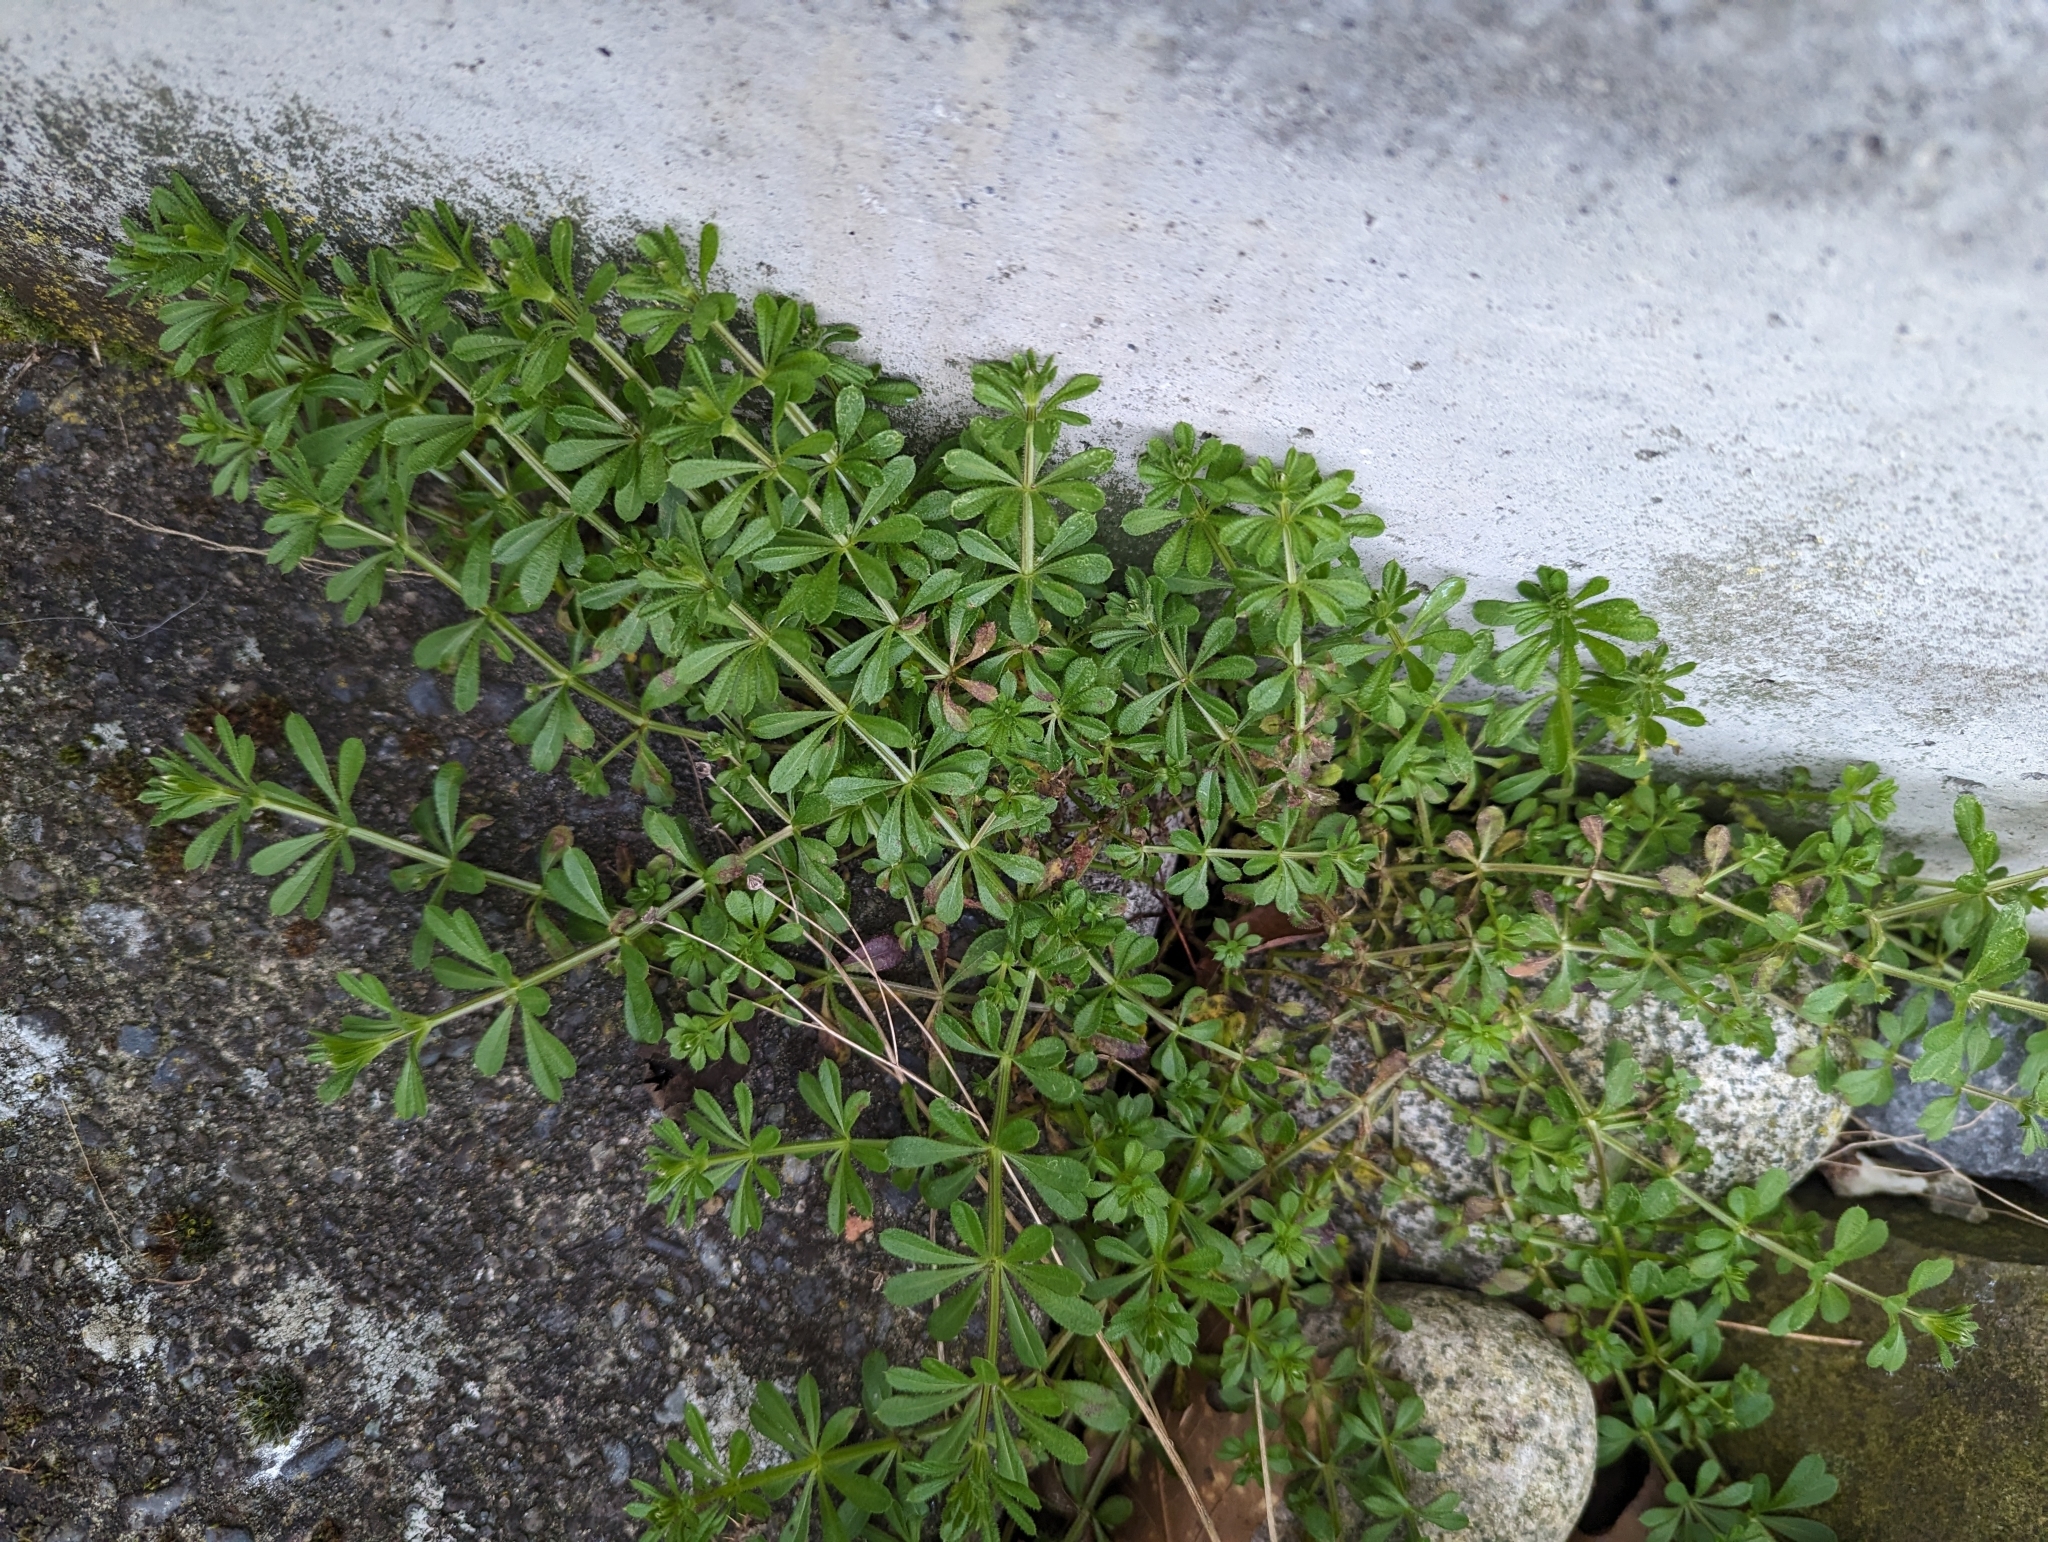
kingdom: Plantae
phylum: Tracheophyta
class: Magnoliopsida
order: Gentianales
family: Rubiaceae
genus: Galium
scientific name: Galium aparine
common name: Cleavers
